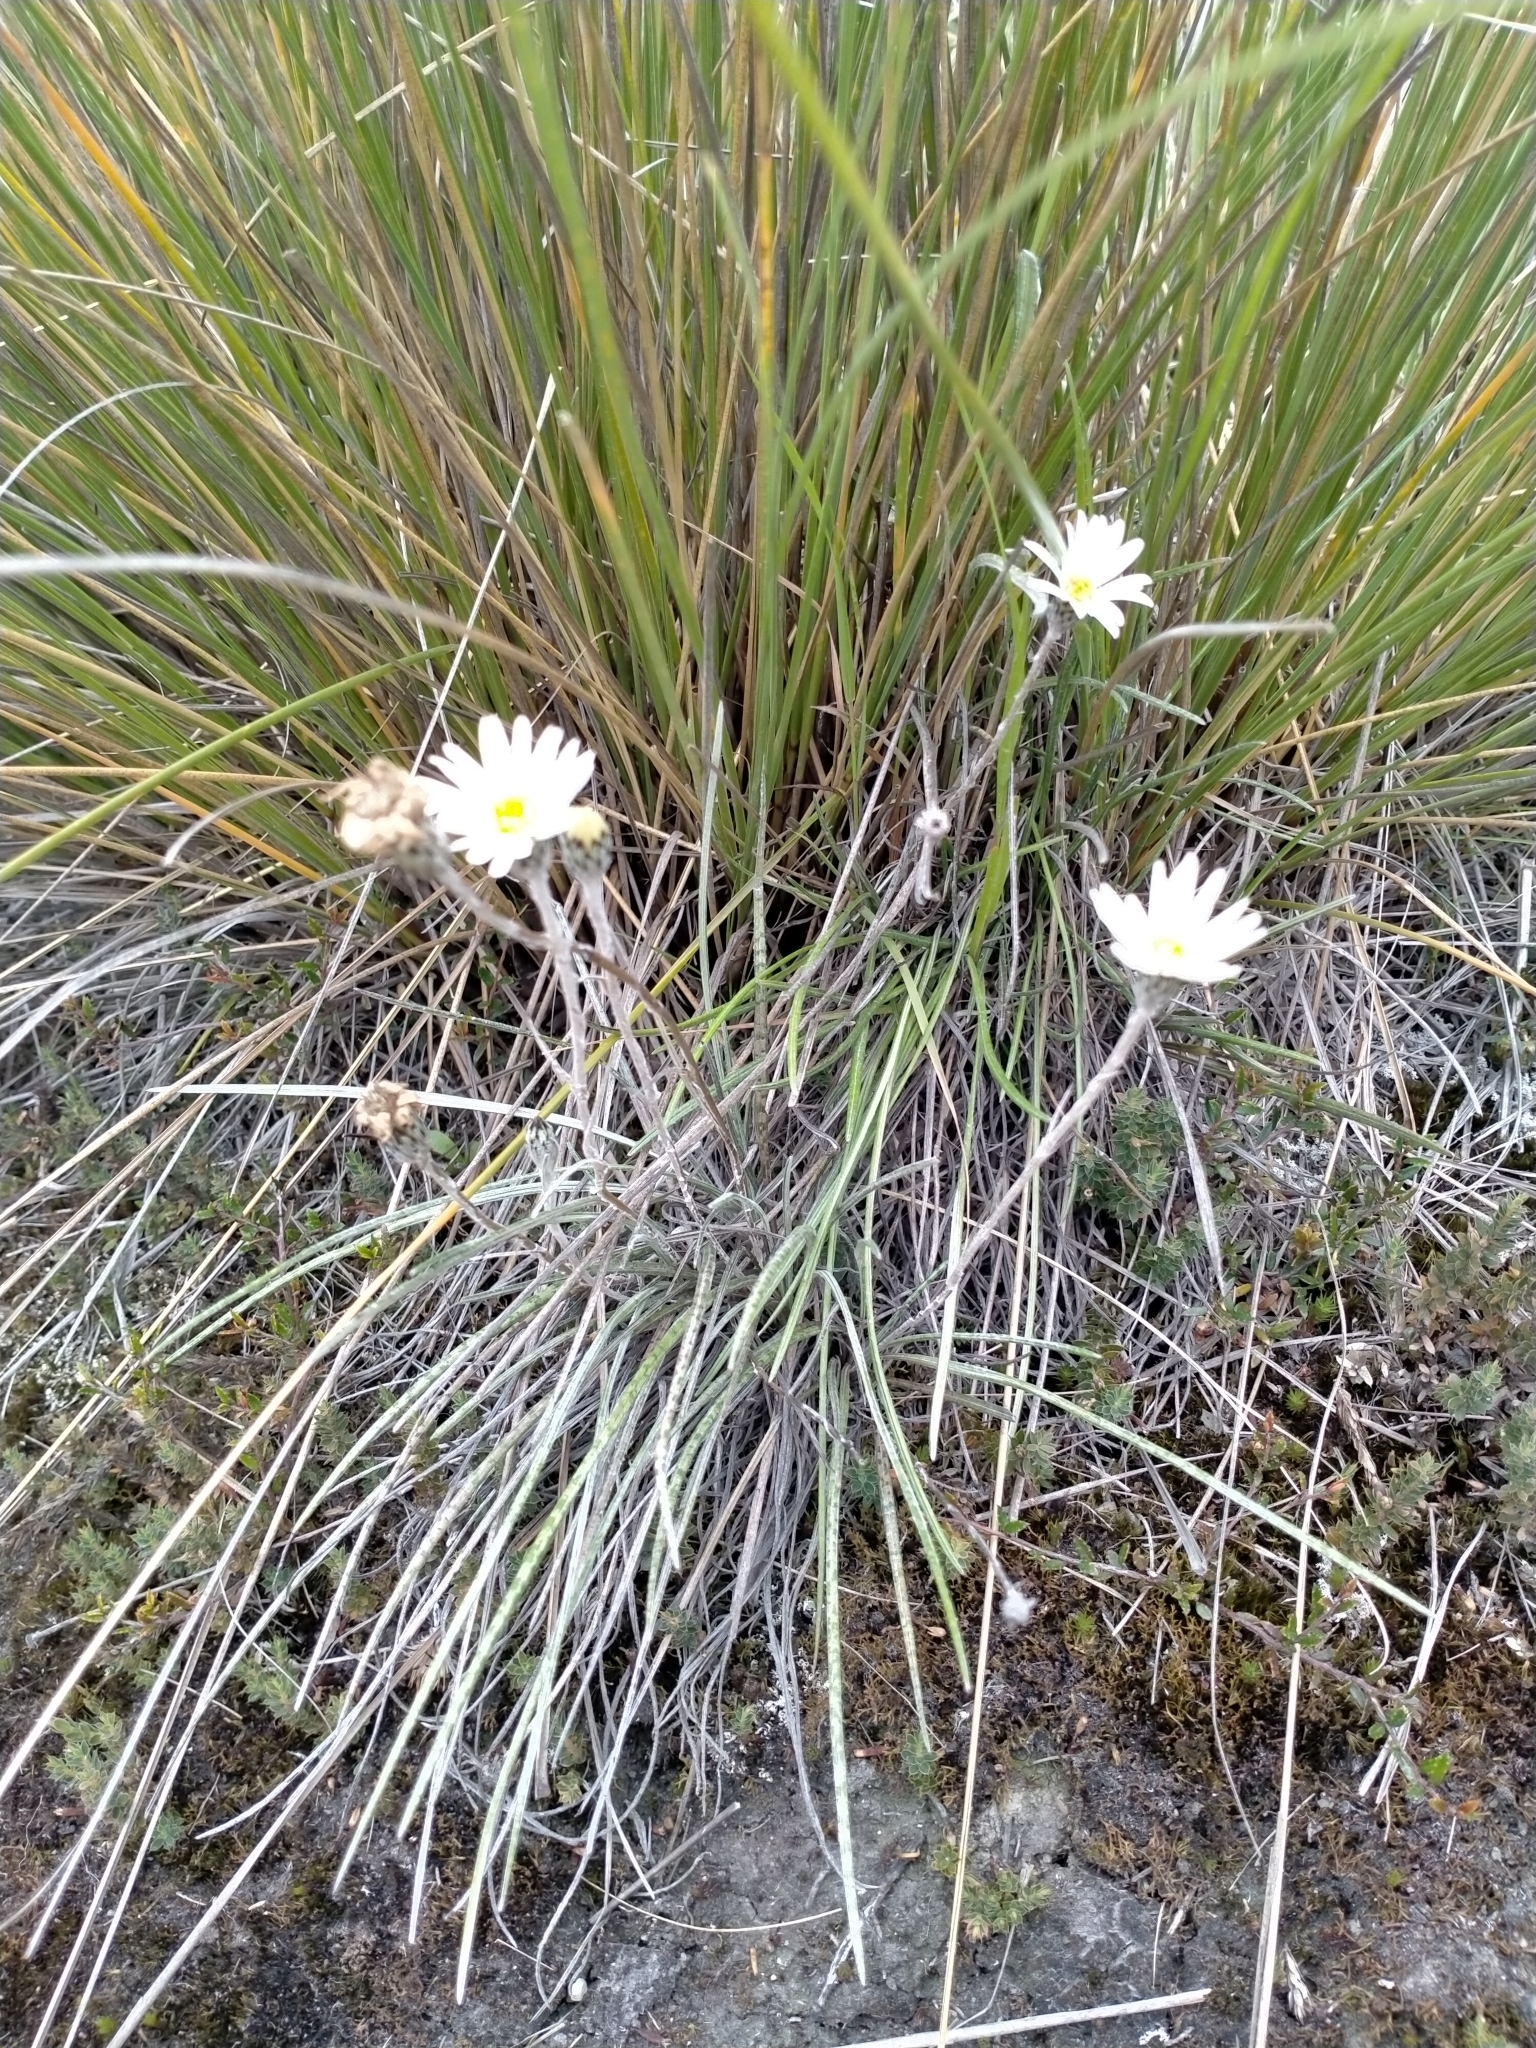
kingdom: Plantae
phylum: Tracheophyta
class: Magnoliopsida
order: Asterales
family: Asteraceae
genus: Celmisia
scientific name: Celmisia gracilenta
